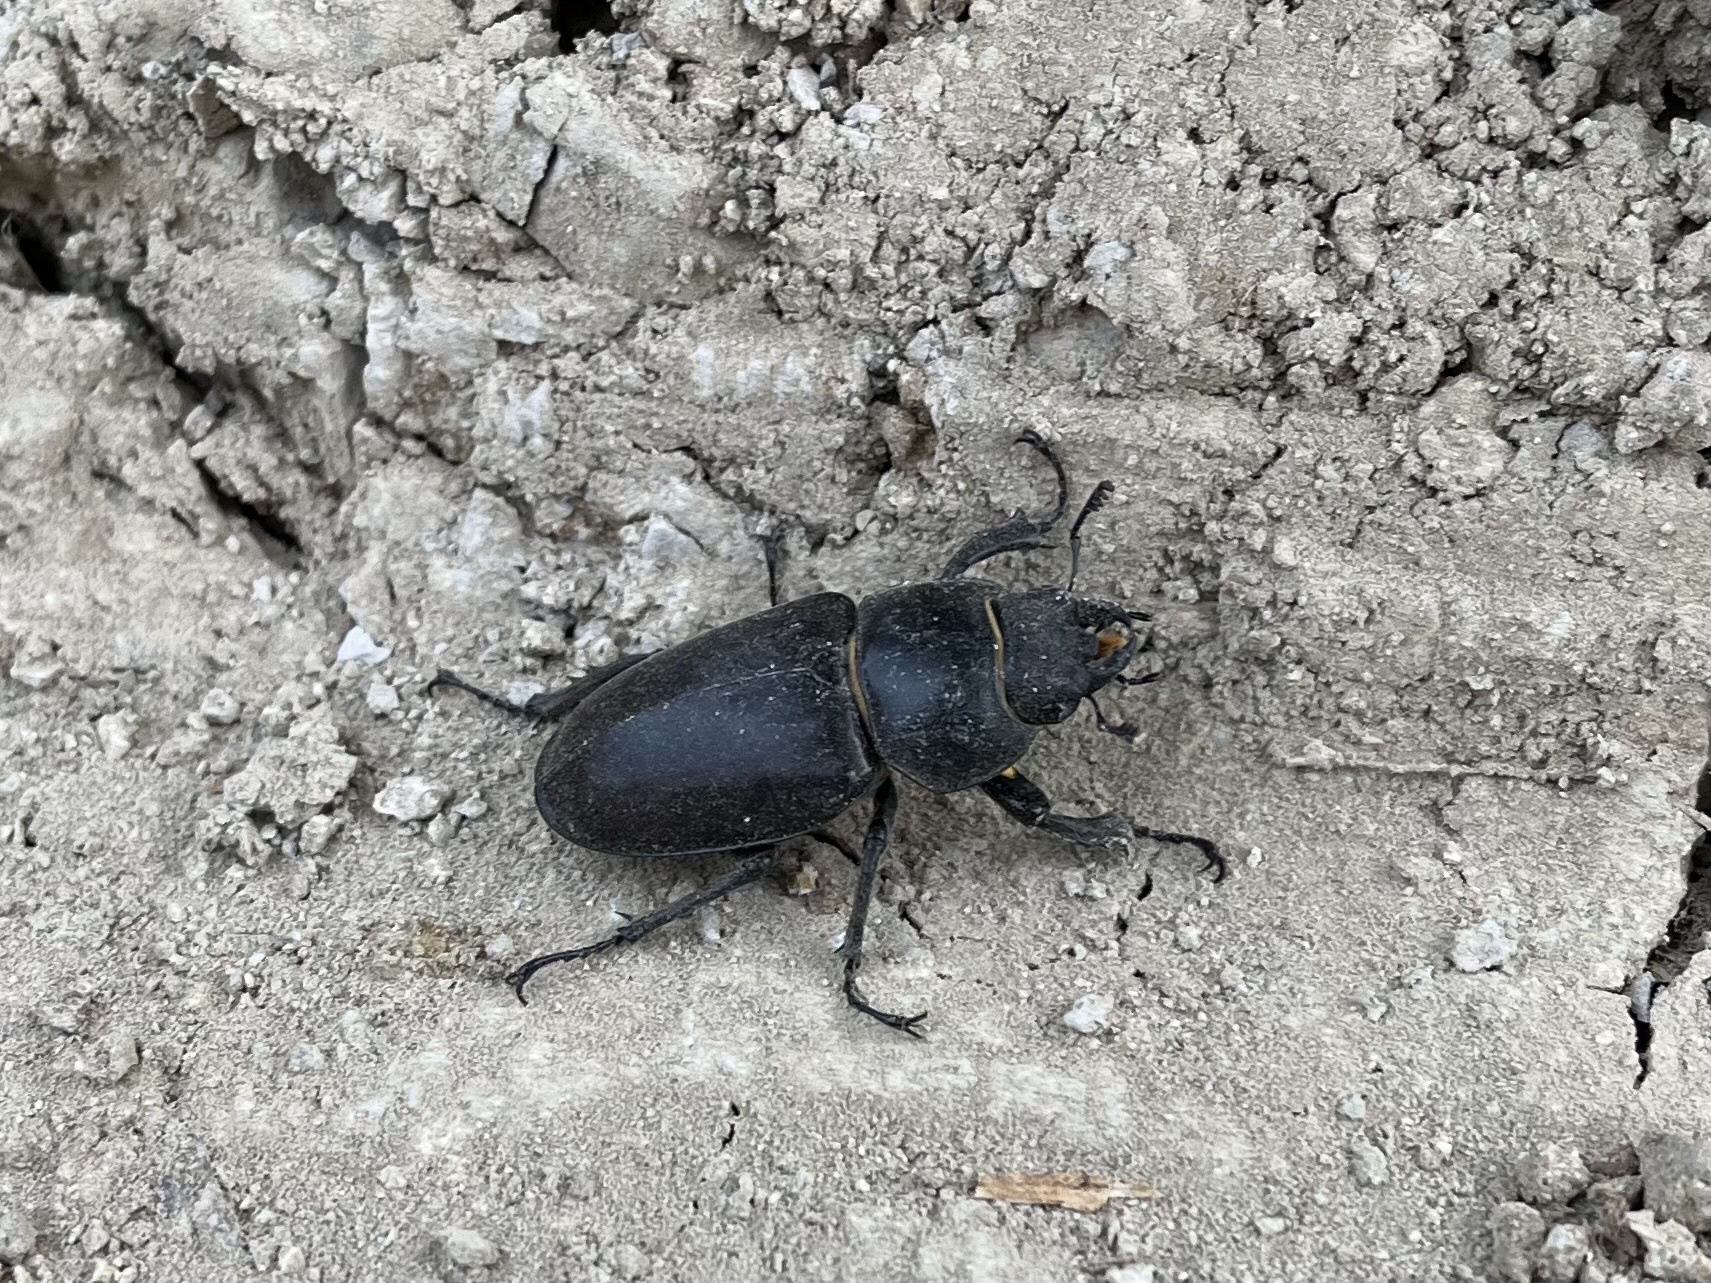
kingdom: Animalia
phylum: Arthropoda
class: Insecta
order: Coleoptera
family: Lucanidae
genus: Lucanus
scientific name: Lucanus cervus
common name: Stag beetle
